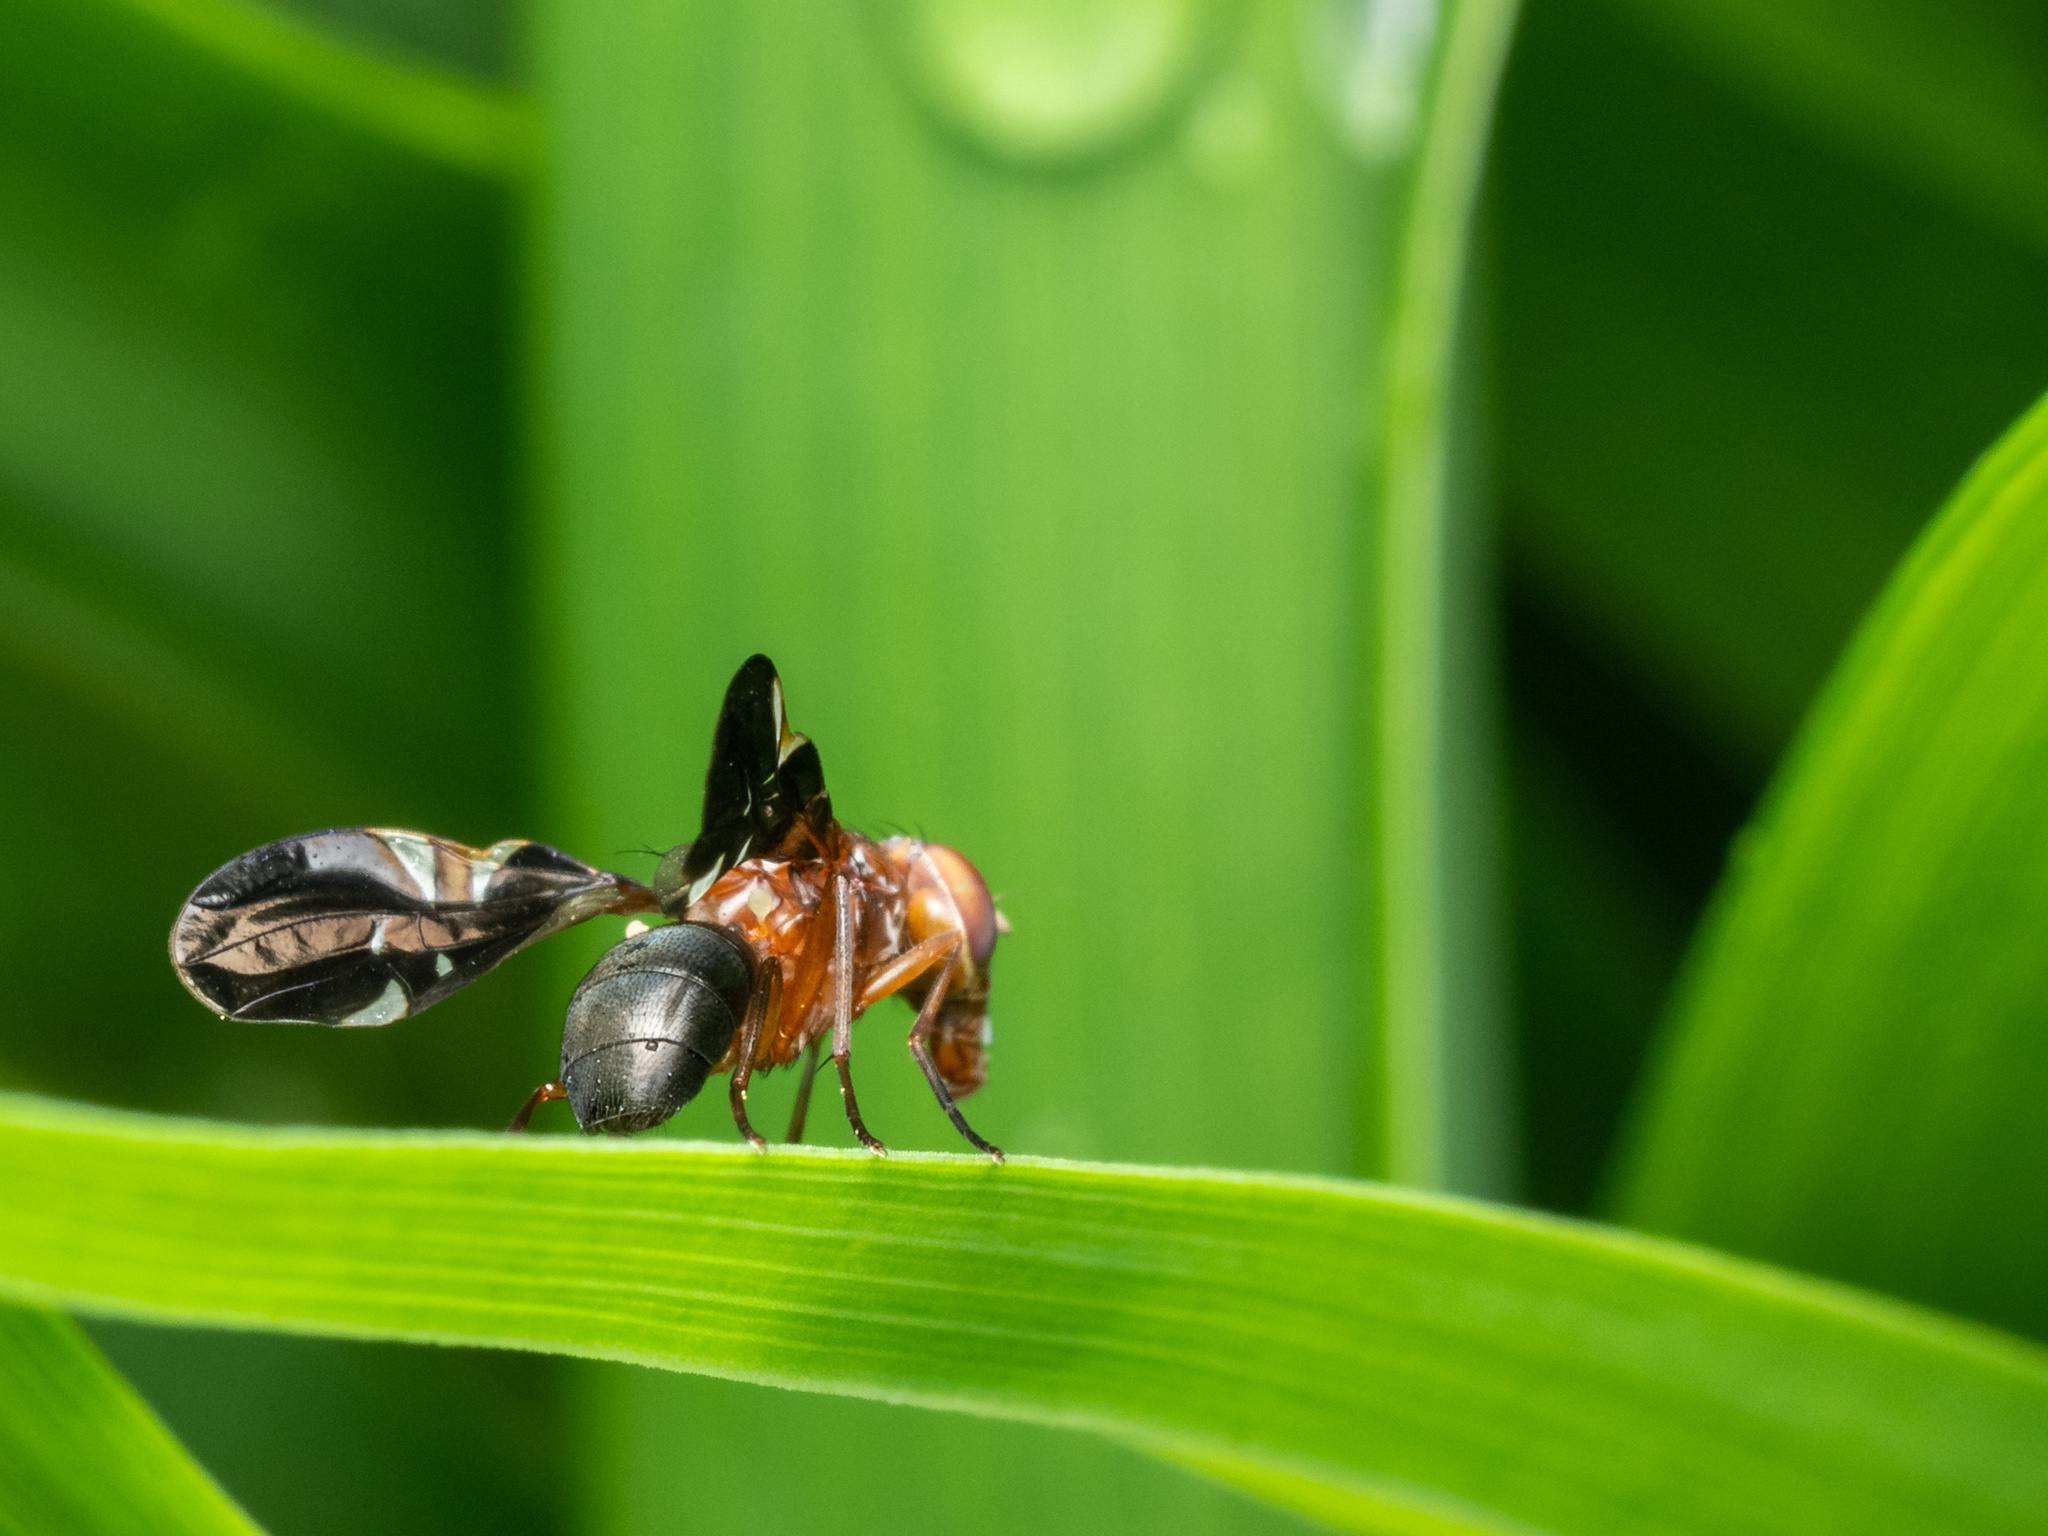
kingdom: Animalia
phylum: Arthropoda
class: Insecta
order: Diptera
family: Ulidiidae
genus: Delphinia
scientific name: Delphinia picta
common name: Common picture-winged fly
